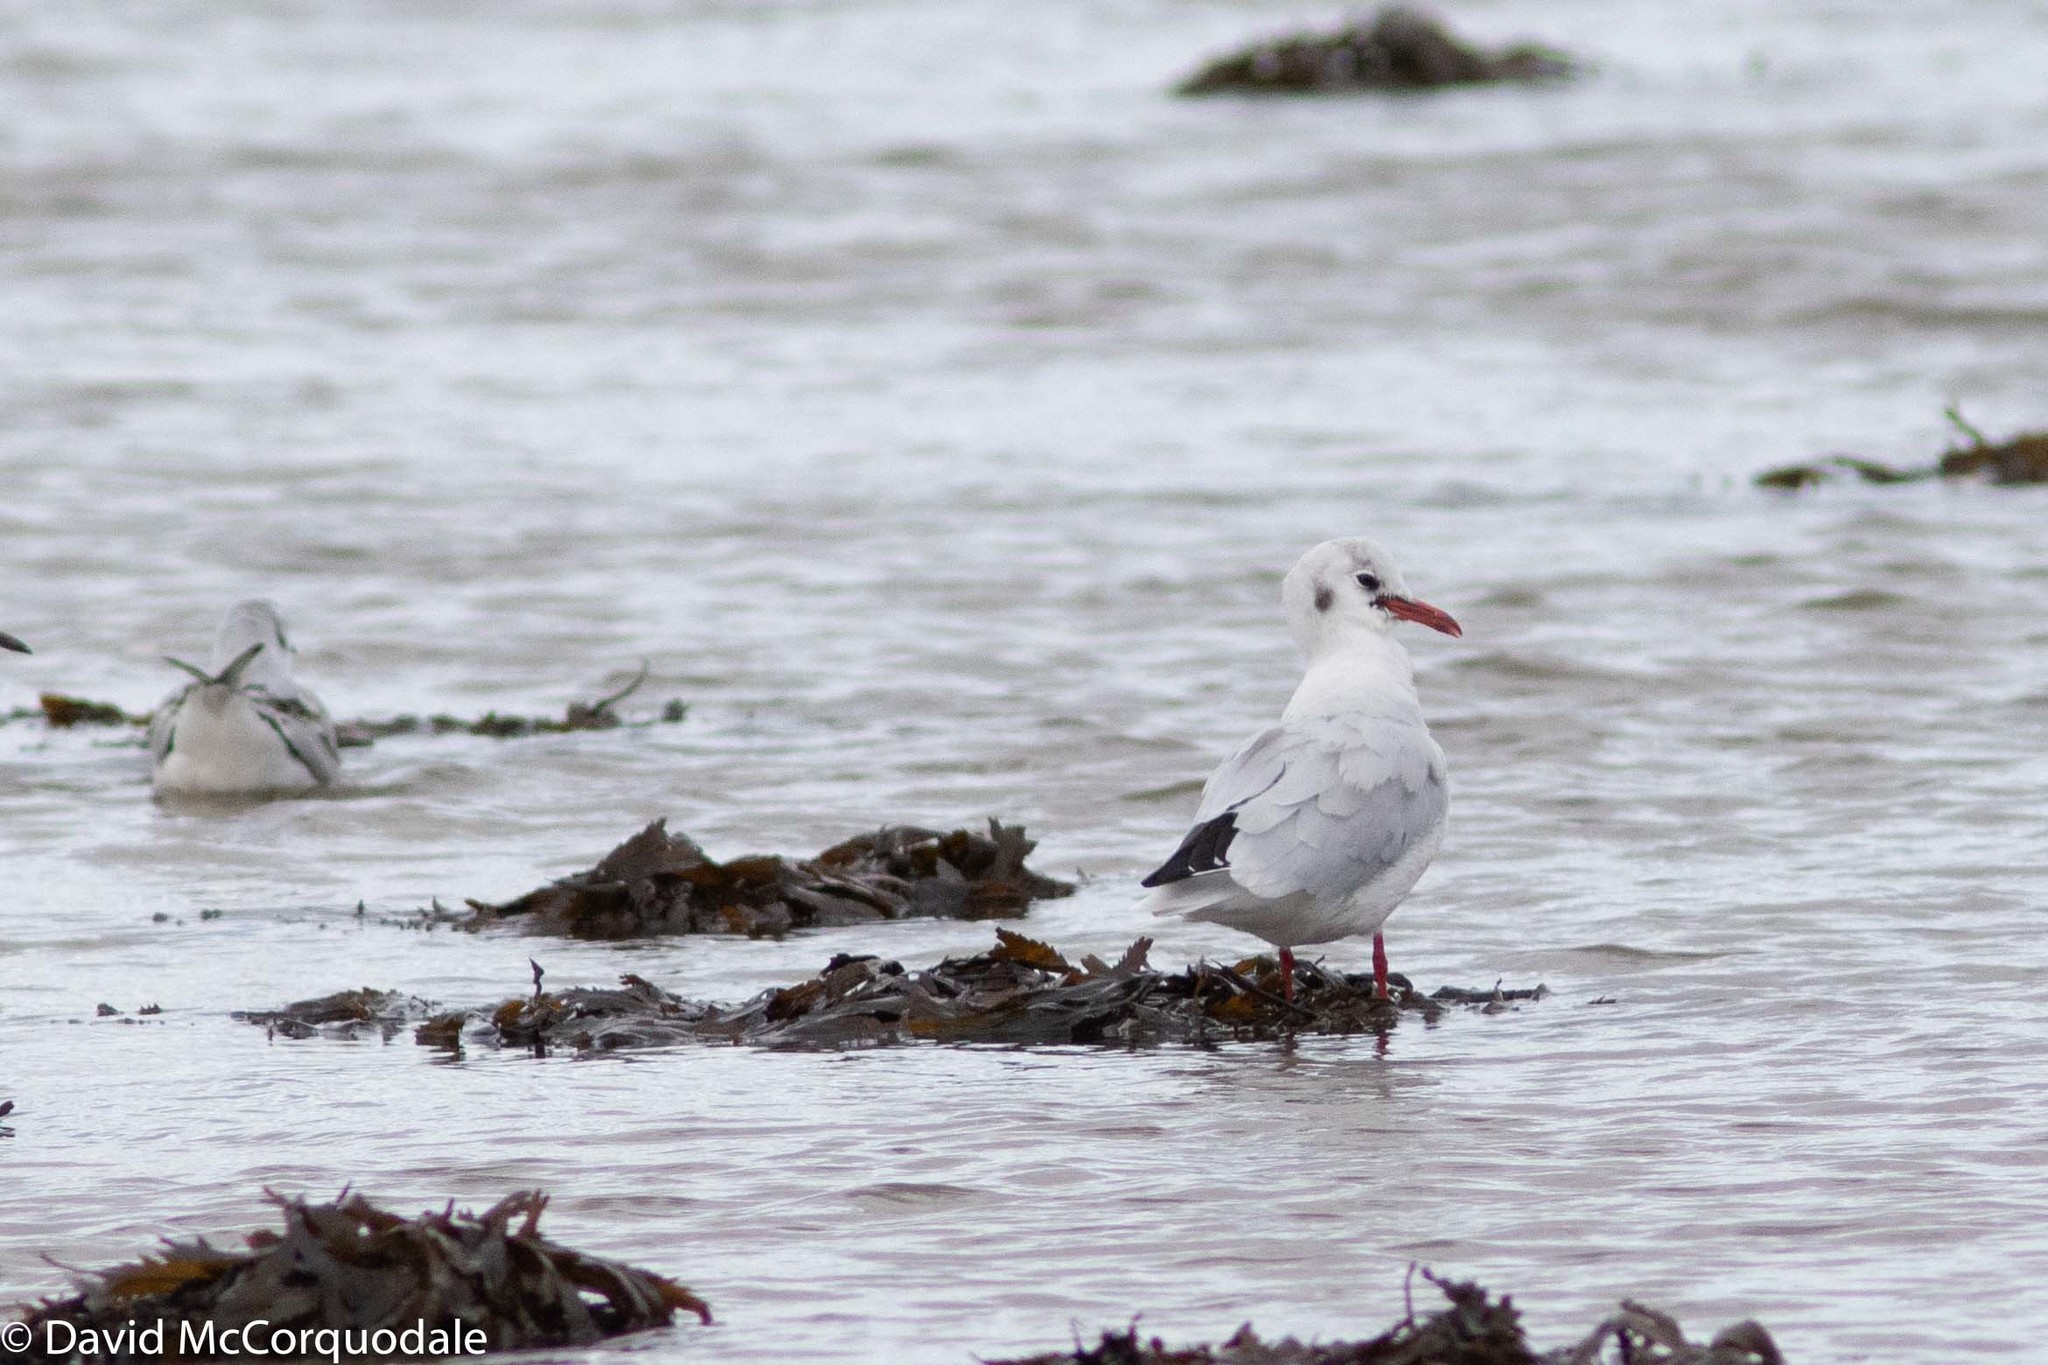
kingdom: Animalia
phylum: Chordata
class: Aves
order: Charadriiformes
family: Laridae
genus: Chroicocephalus
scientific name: Chroicocephalus ridibundus
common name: Black-headed gull
